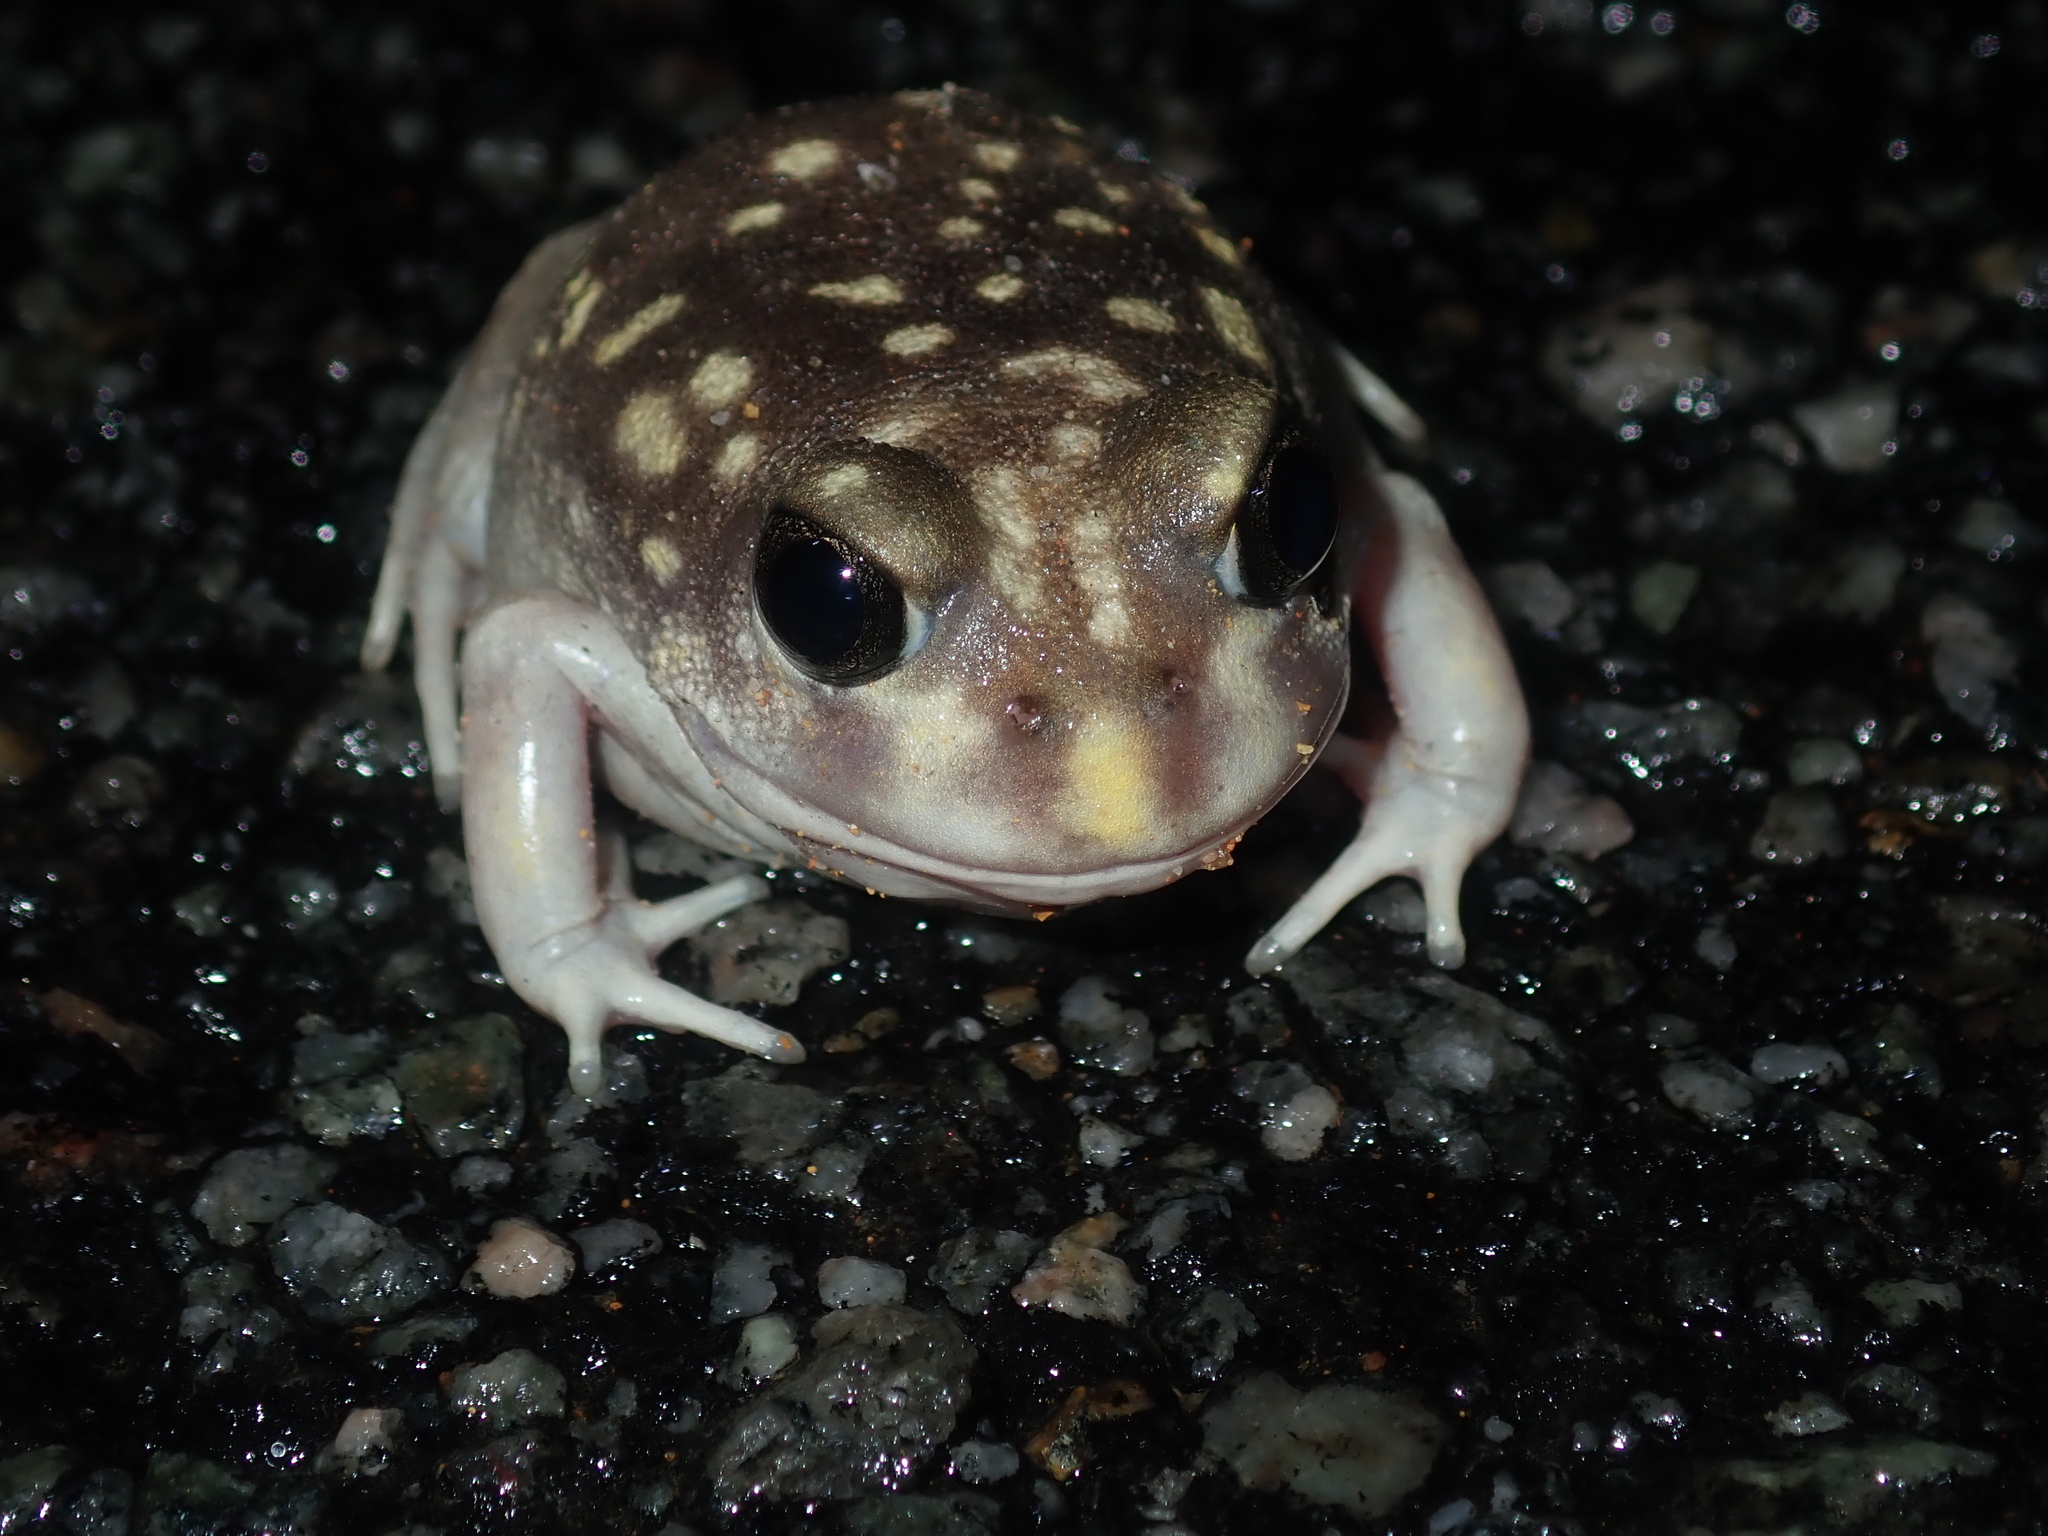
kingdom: Animalia
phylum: Chordata
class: Amphibia
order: Anura
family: Limnodynastidae
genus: Heleioporus
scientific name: Heleioporus albopunctatus
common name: Western spotted frog
